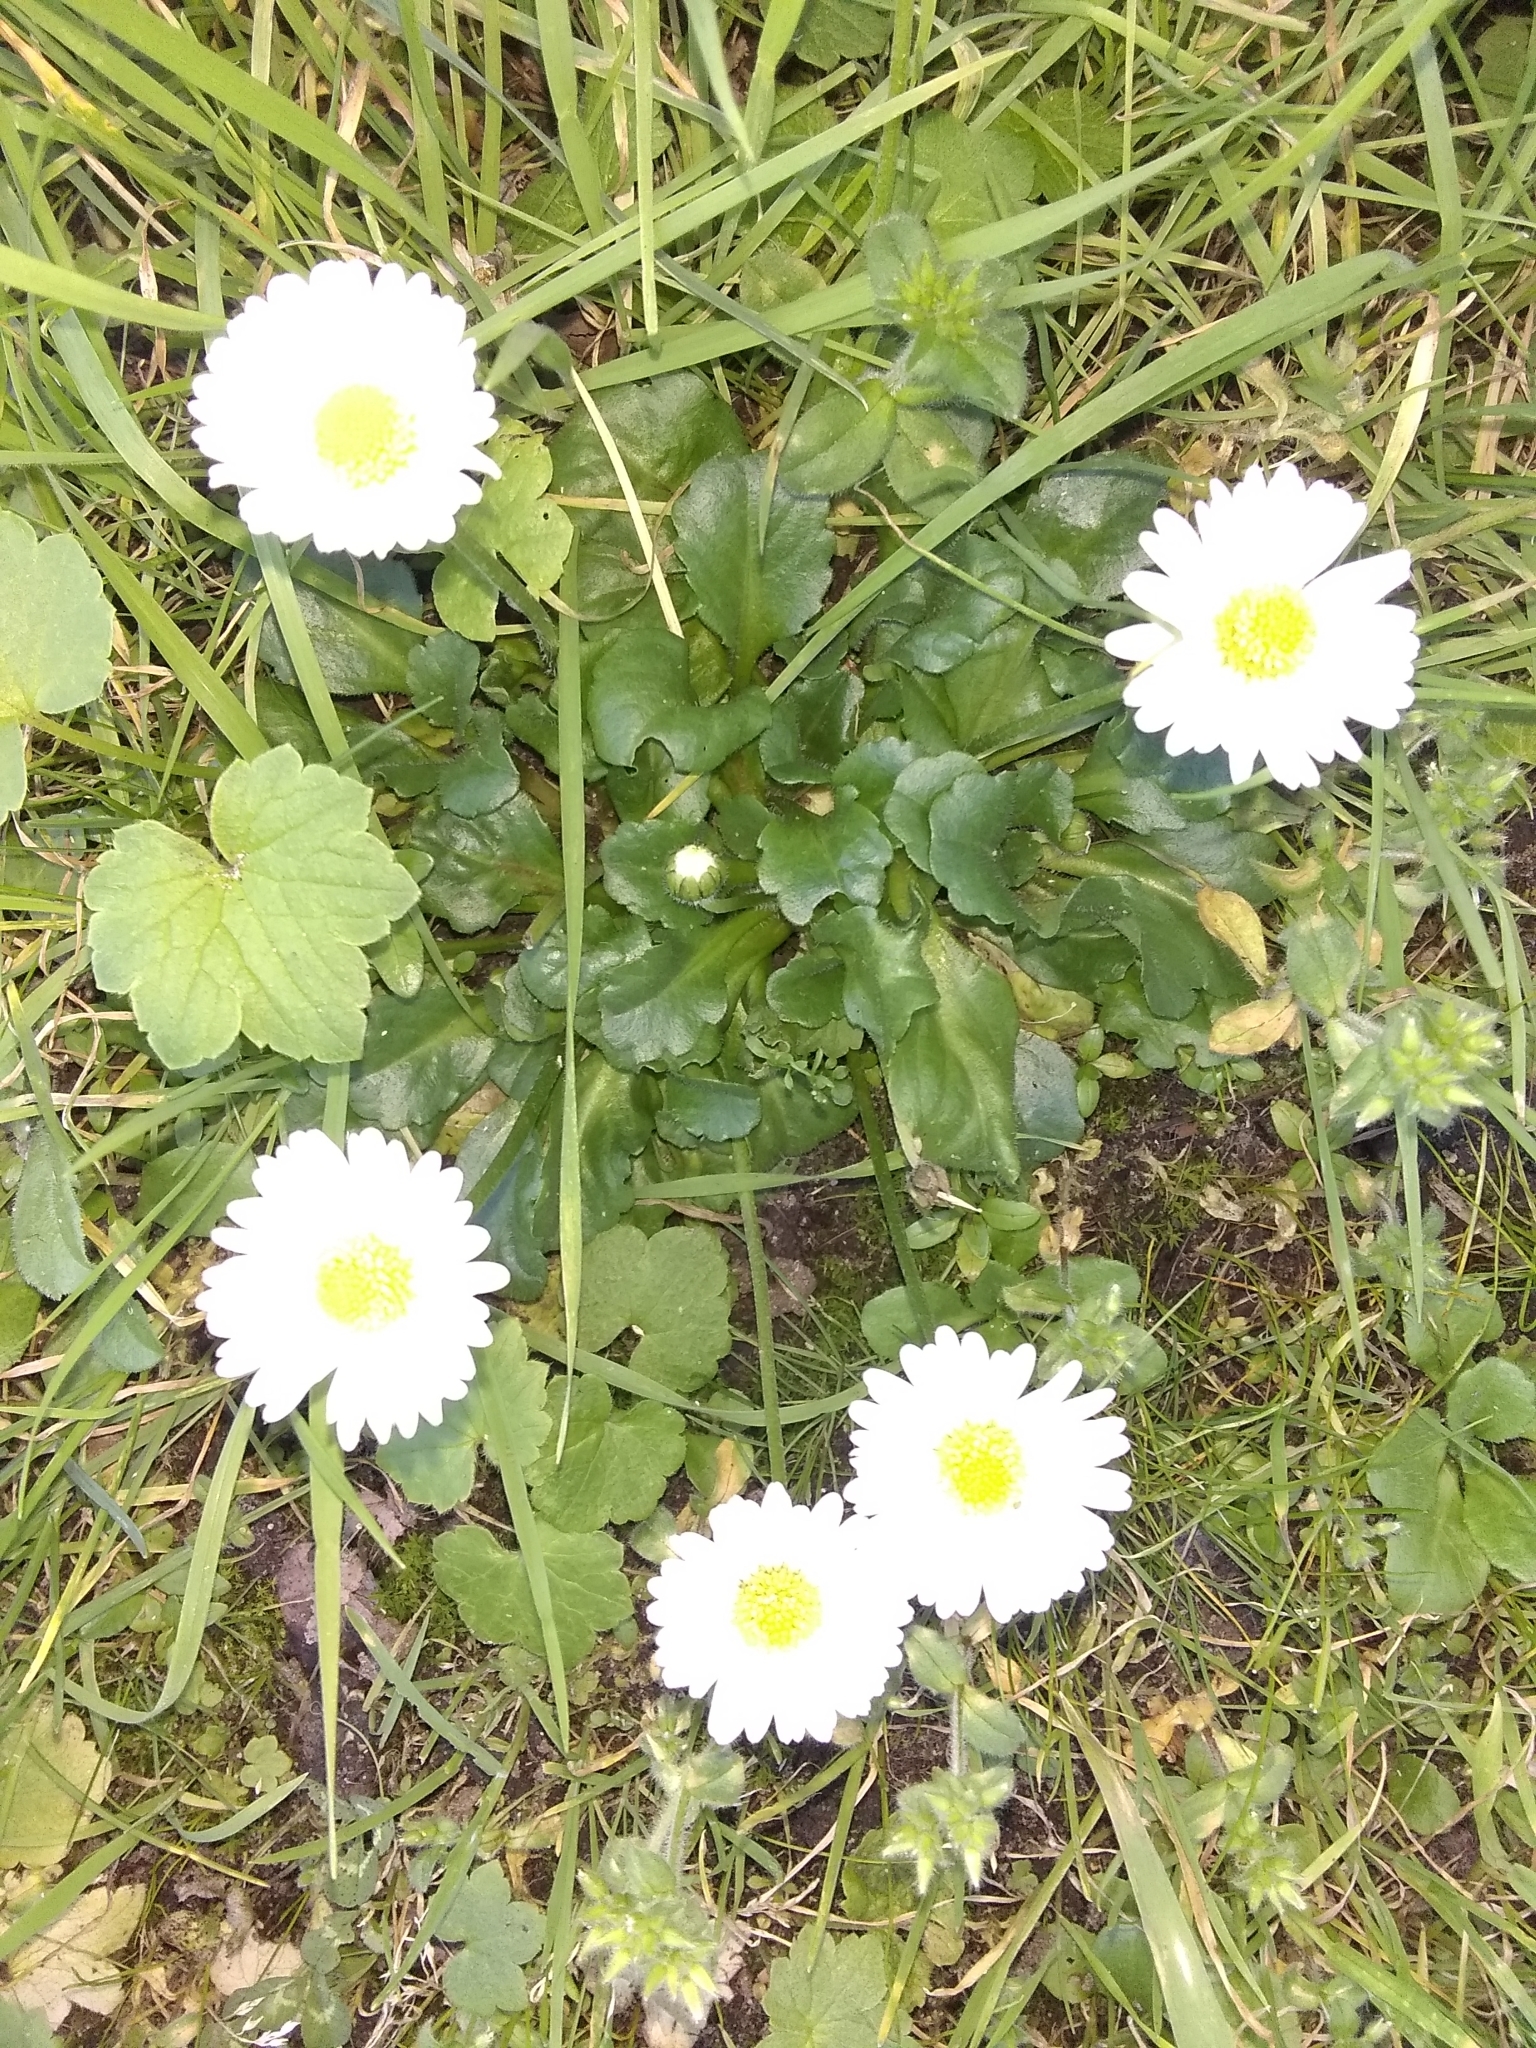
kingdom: Plantae
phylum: Tracheophyta
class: Magnoliopsida
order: Asterales
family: Asteraceae
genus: Bellis
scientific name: Bellis perennis
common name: Lawndaisy
